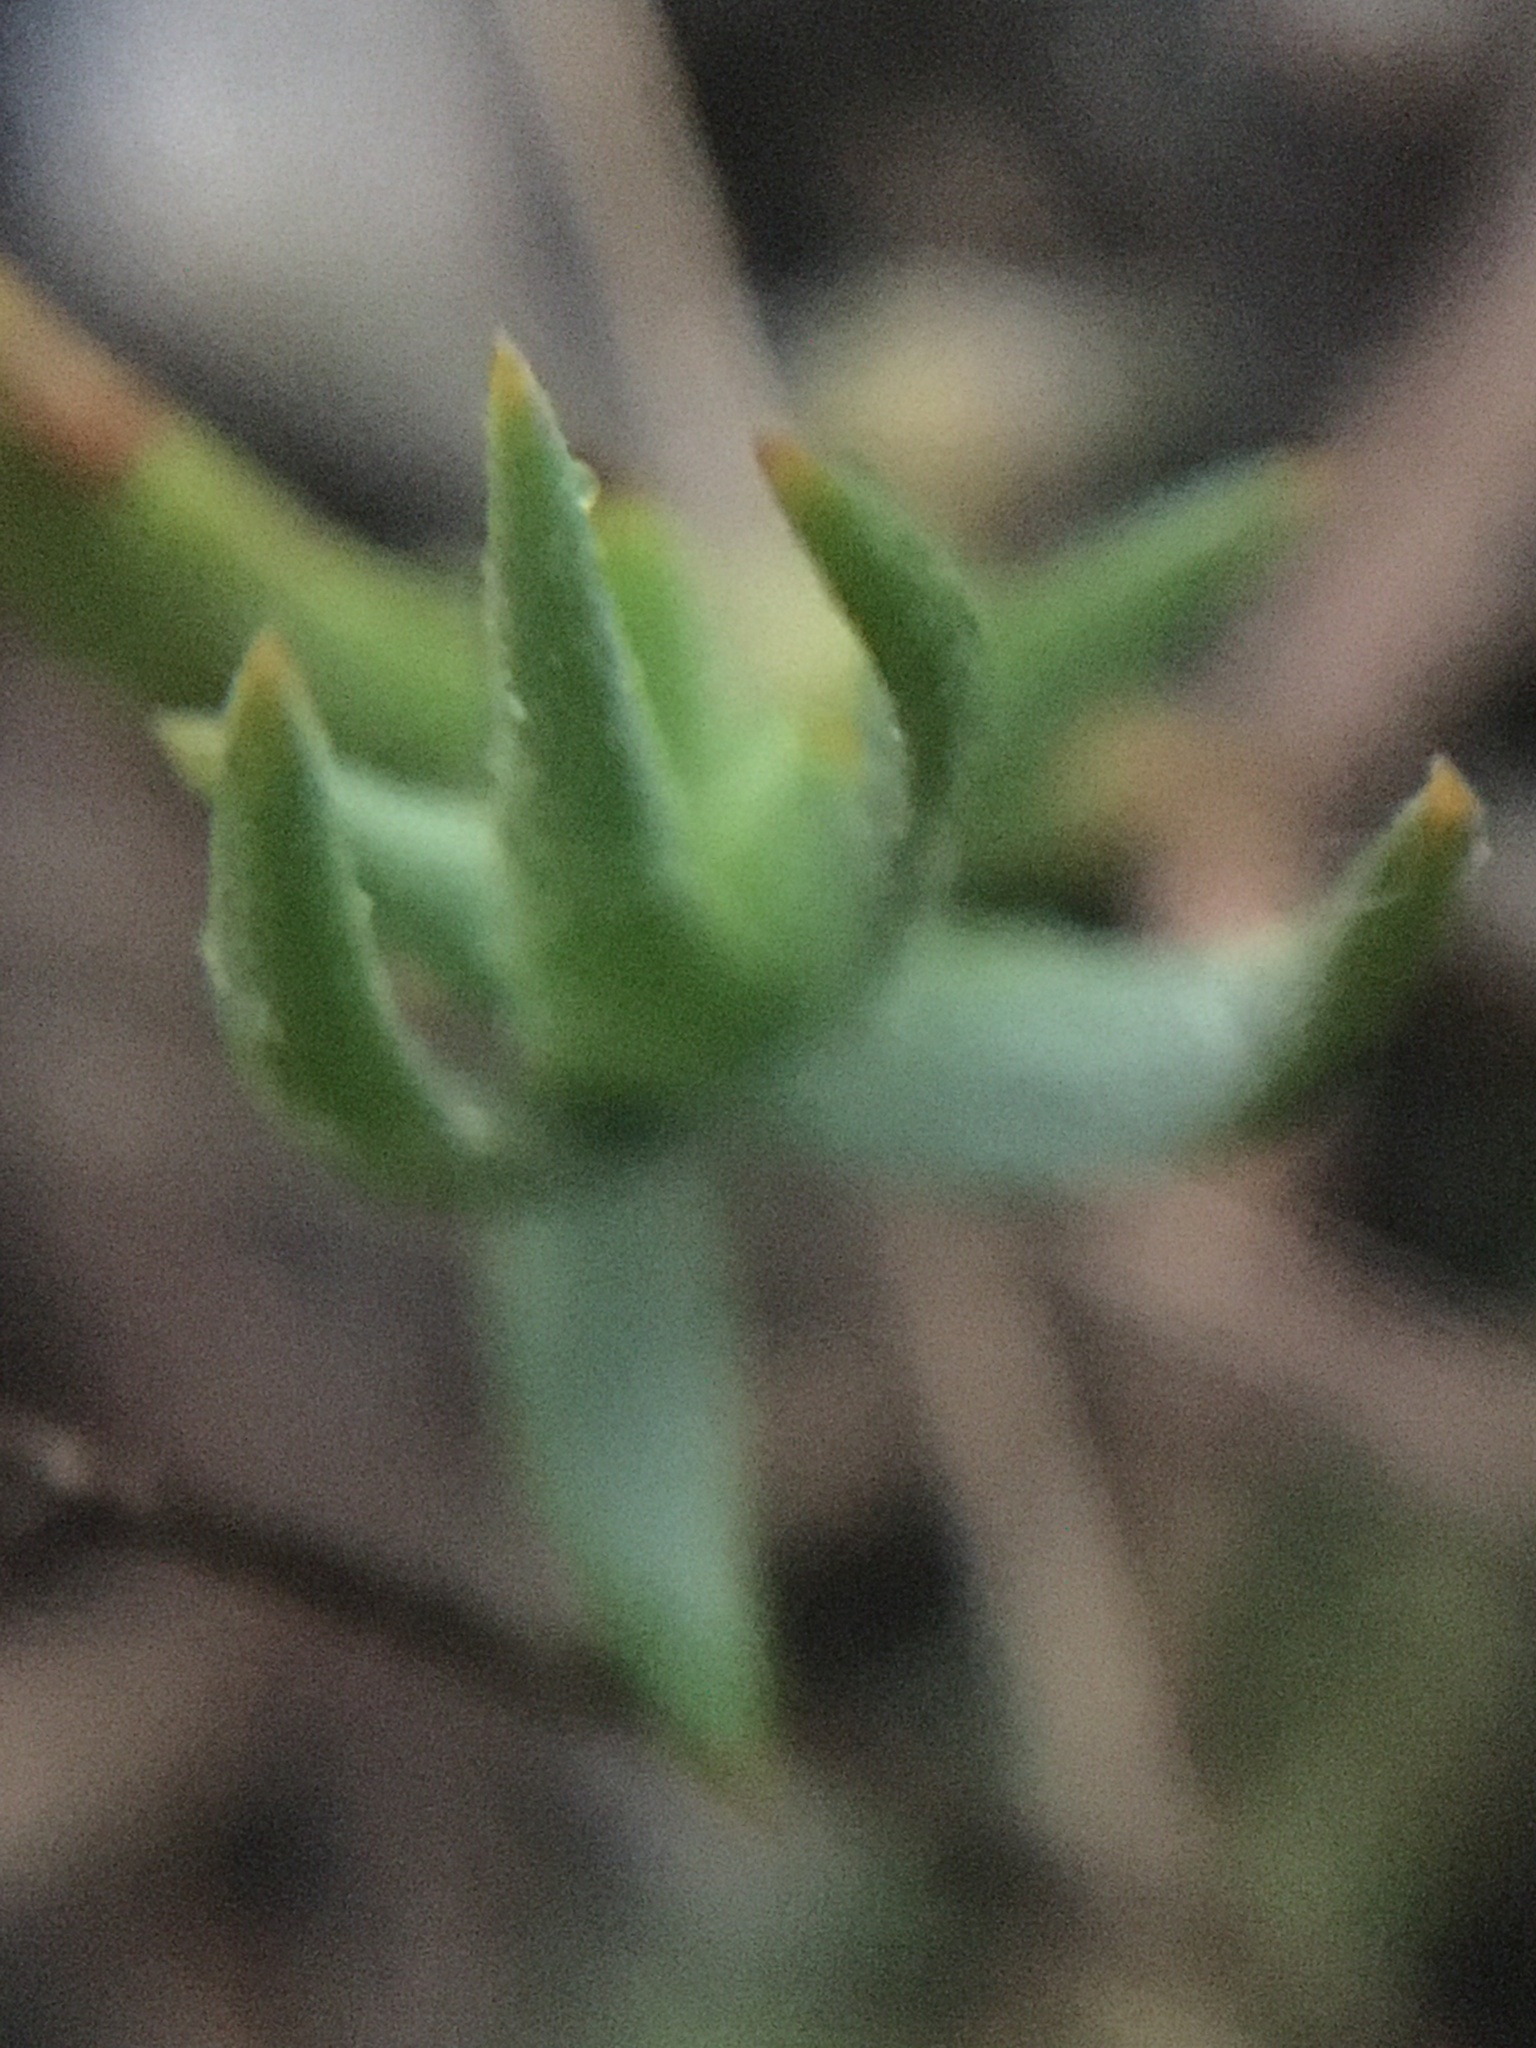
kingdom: Plantae
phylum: Tracheophyta
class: Magnoliopsida
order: Santalales
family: Thesiaceae
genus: Thesium
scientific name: Thesium ecklonianum
